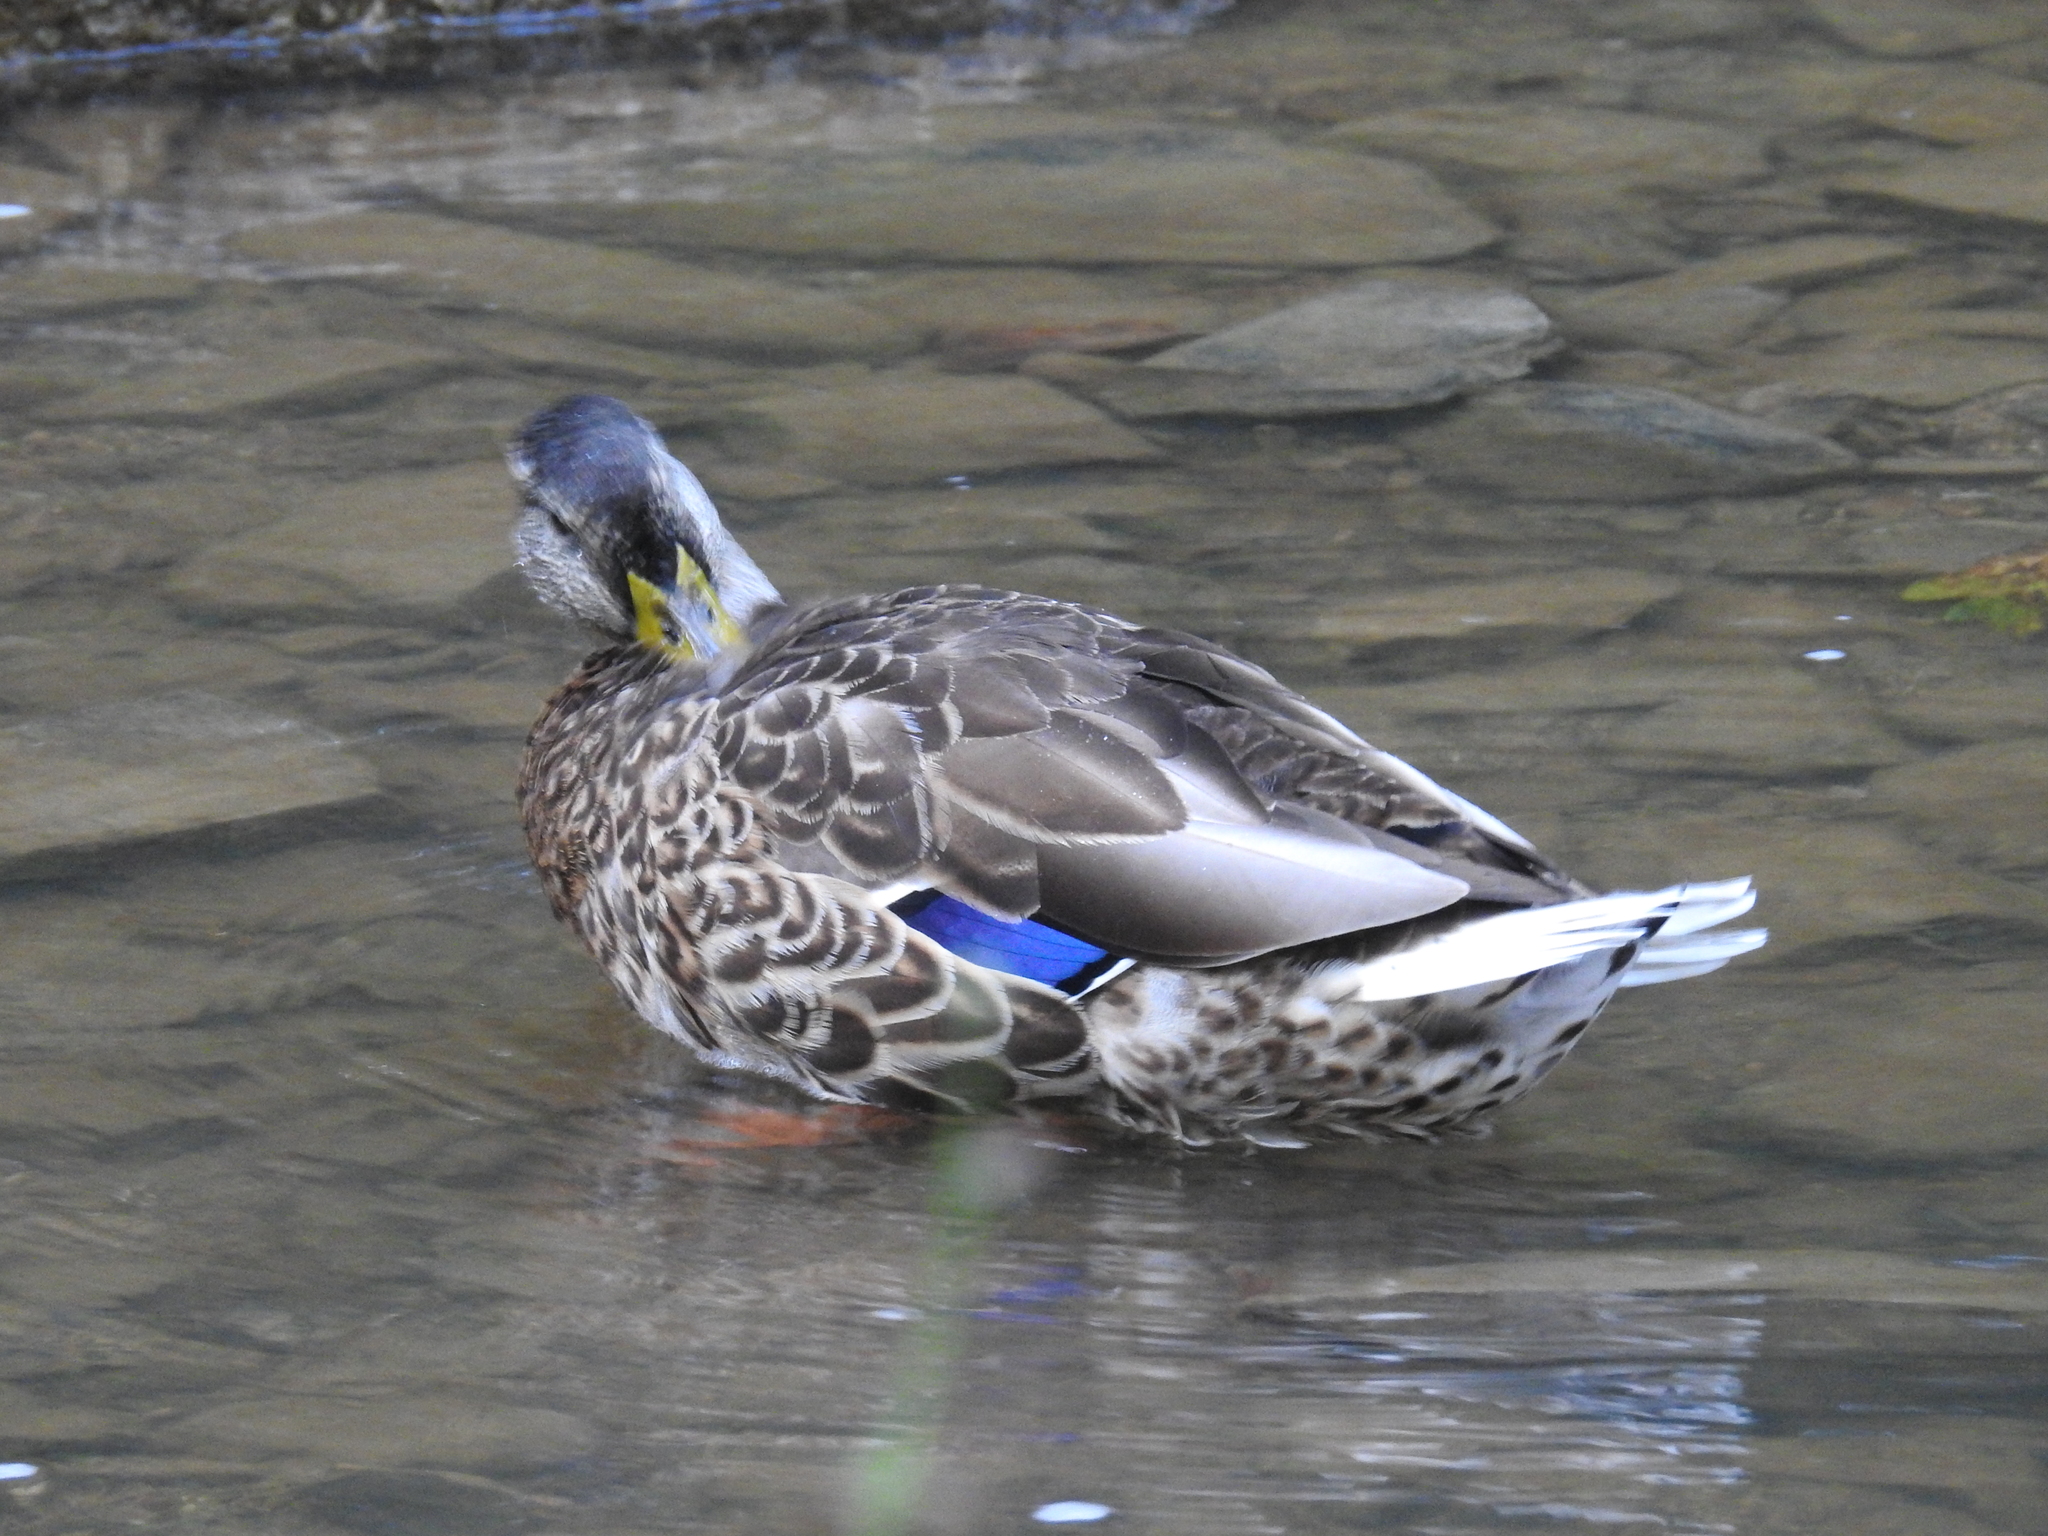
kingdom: Animalia
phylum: Chordata
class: Aves
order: Anseriformes
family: Anatidae
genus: Anas
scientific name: Anas platyrhynchos
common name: Mallard
